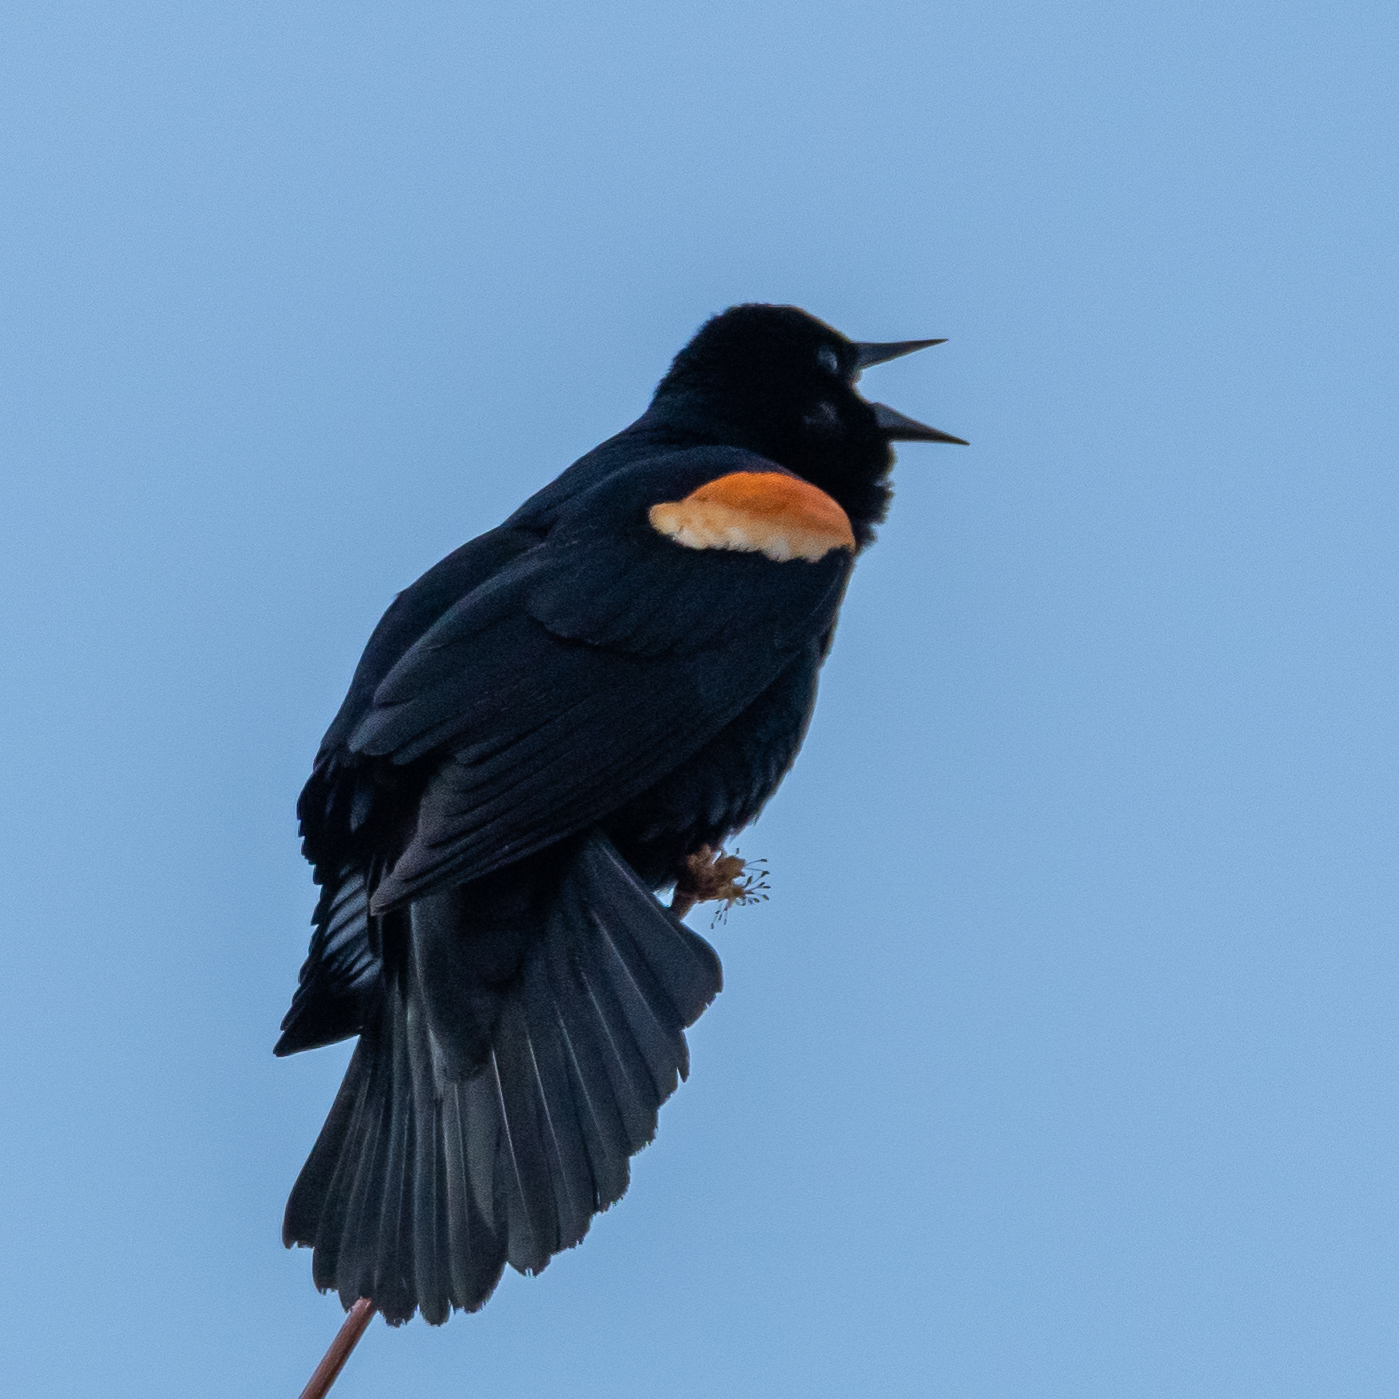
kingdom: Animalia
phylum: Chordata
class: Aves
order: Passeriformes
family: Icteridae
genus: Agelaius
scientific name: Agelaius phoeniceus
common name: Red-winged blackbird
